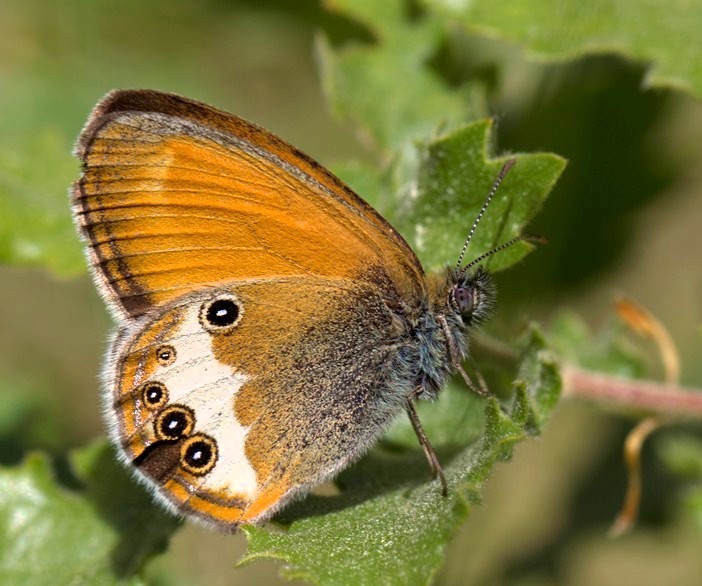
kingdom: Animalia
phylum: Arthropoda
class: Insecta
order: Lepidoptera
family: Nymphalidae
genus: Coenonympha
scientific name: Coenonympha arcania
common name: Pearly heath
